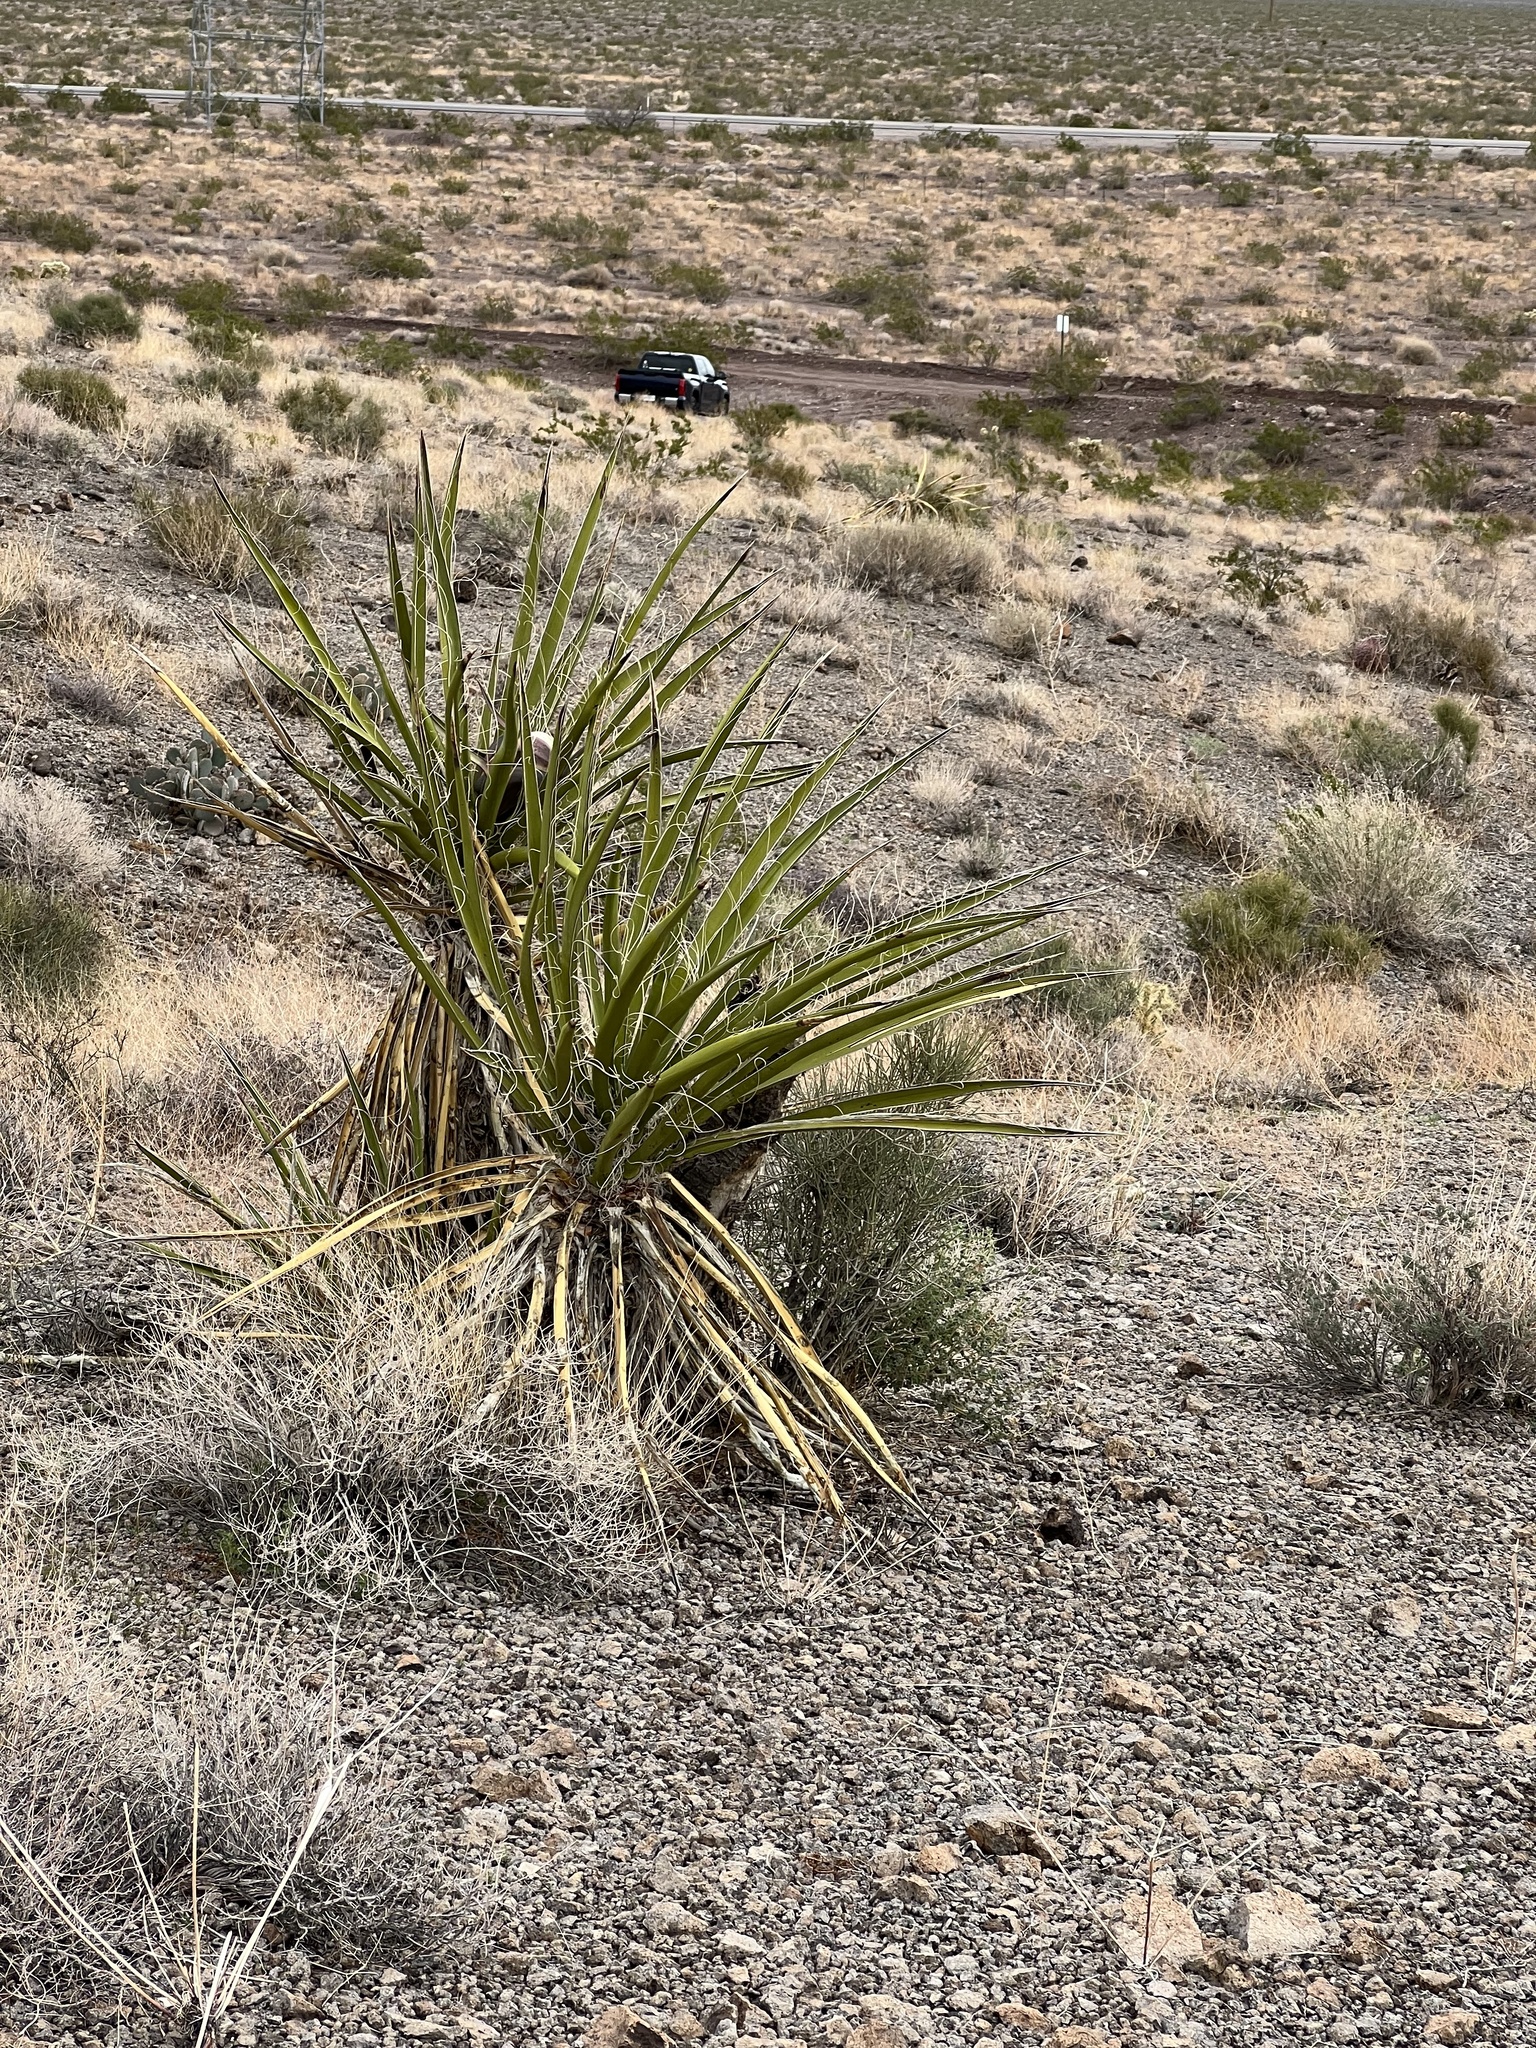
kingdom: Plantae
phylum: Tracheophyta
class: Liliopsida
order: Asparagales
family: Asparagaceae
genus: Yucca
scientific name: Yucca schidigera
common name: Mojave yucca
